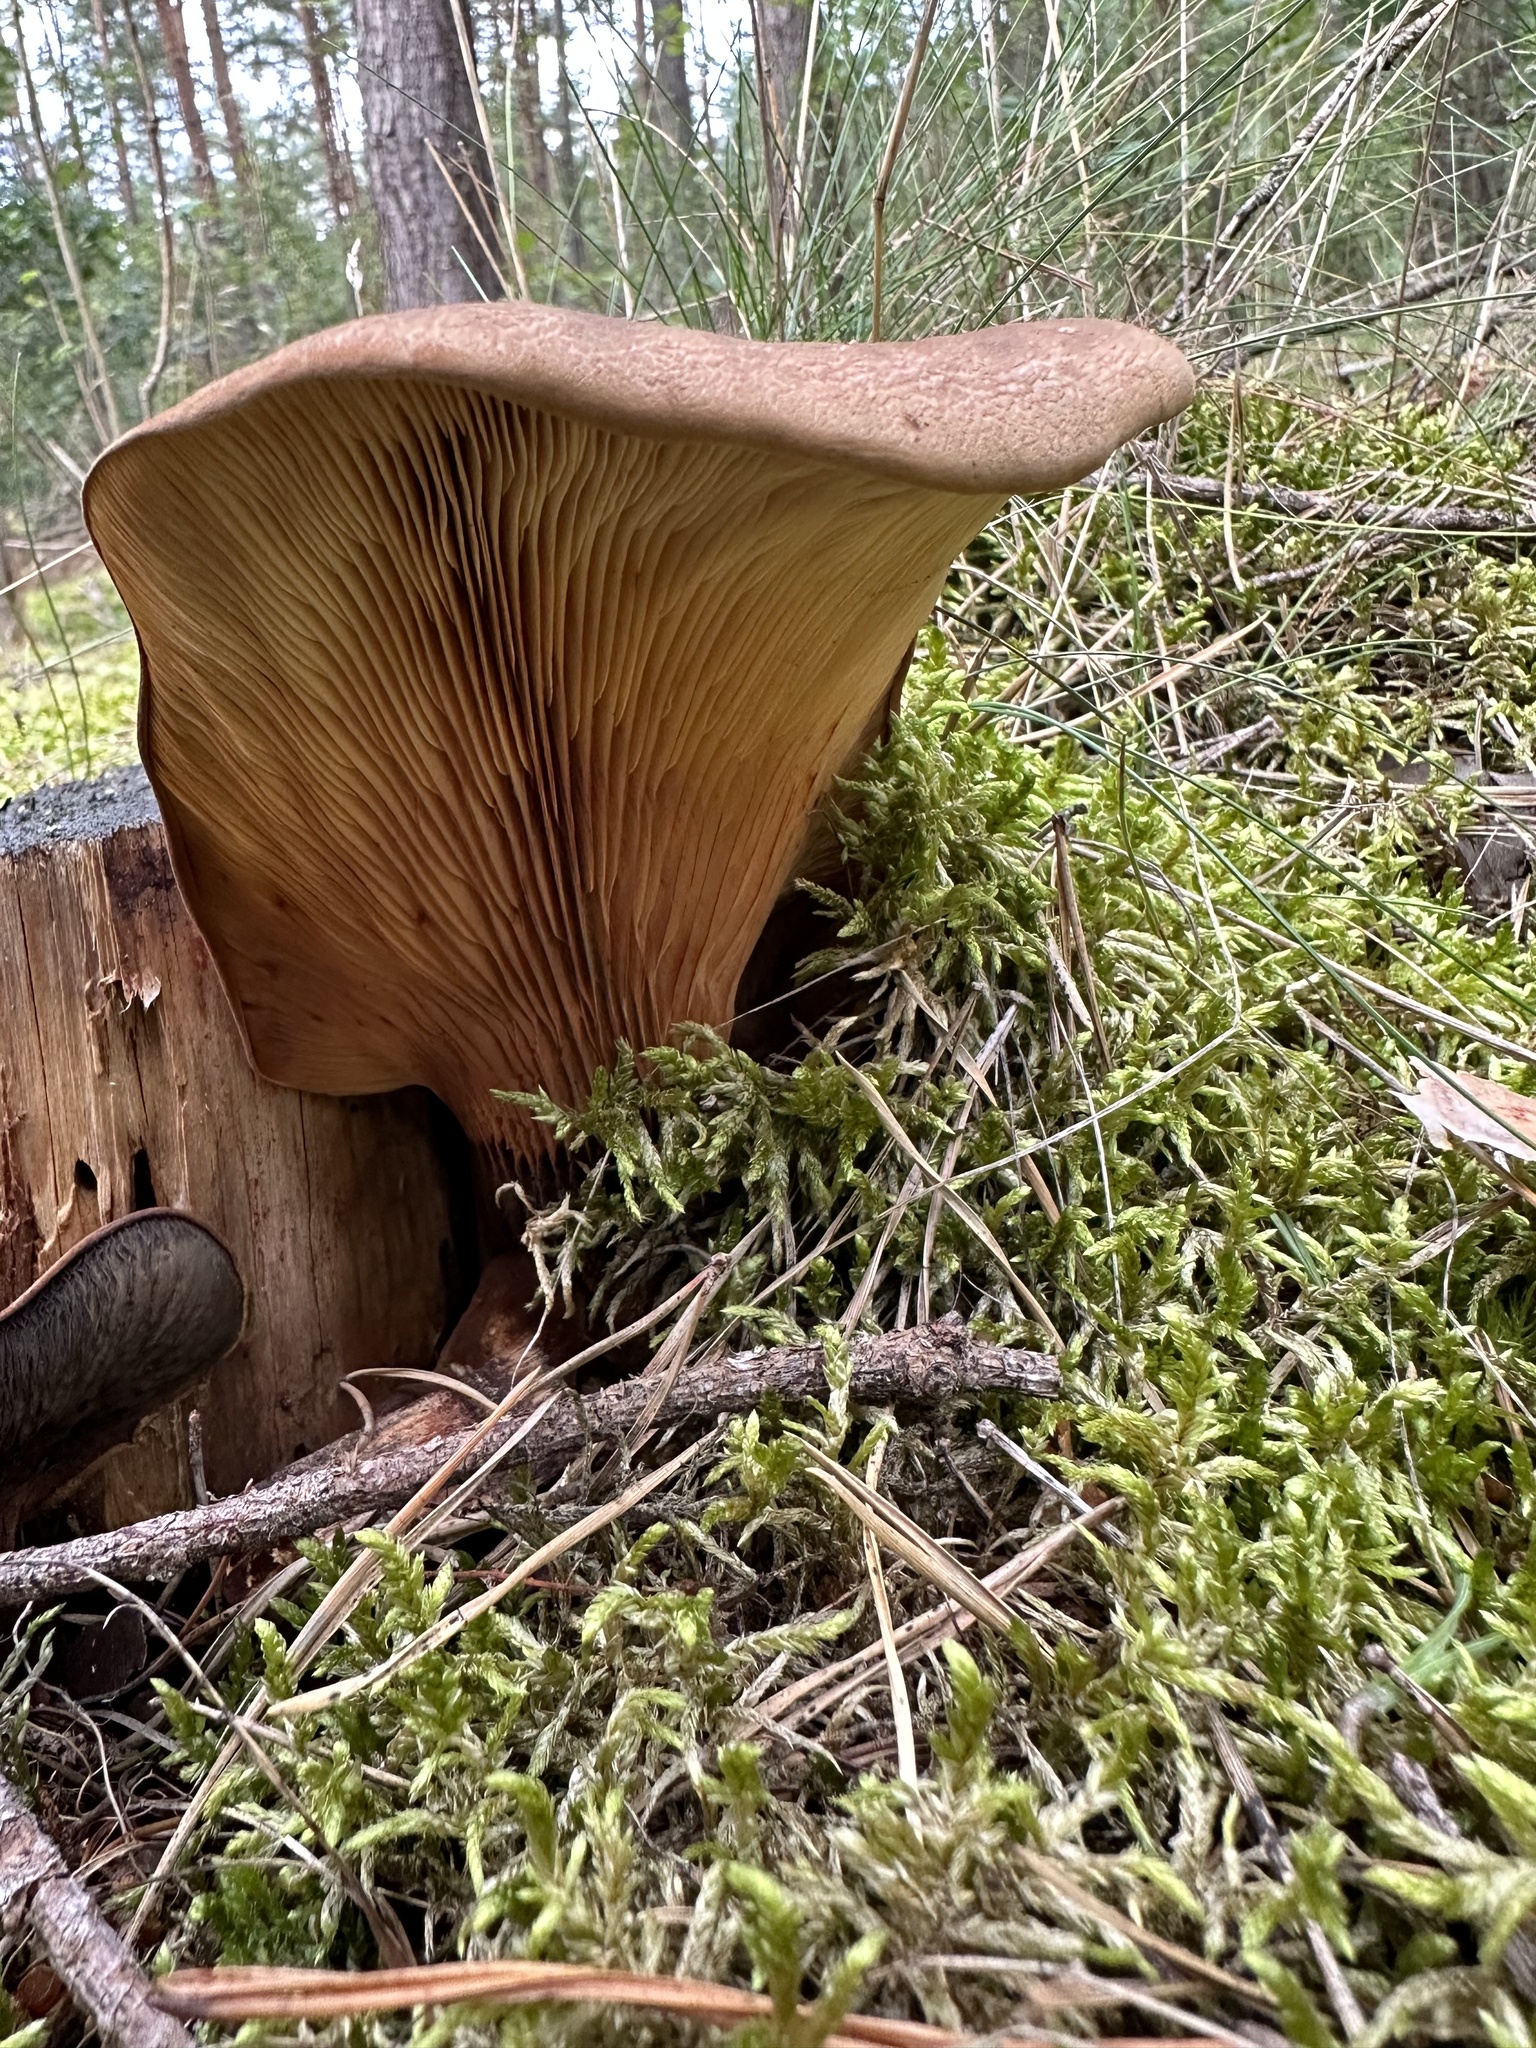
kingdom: Fungi
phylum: Basidiomycota
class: Agaricomycetes
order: Boletales
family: Tapinellaceae
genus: Tapinella
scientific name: Tapinella atrotomentosa
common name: Velvet rollrim
